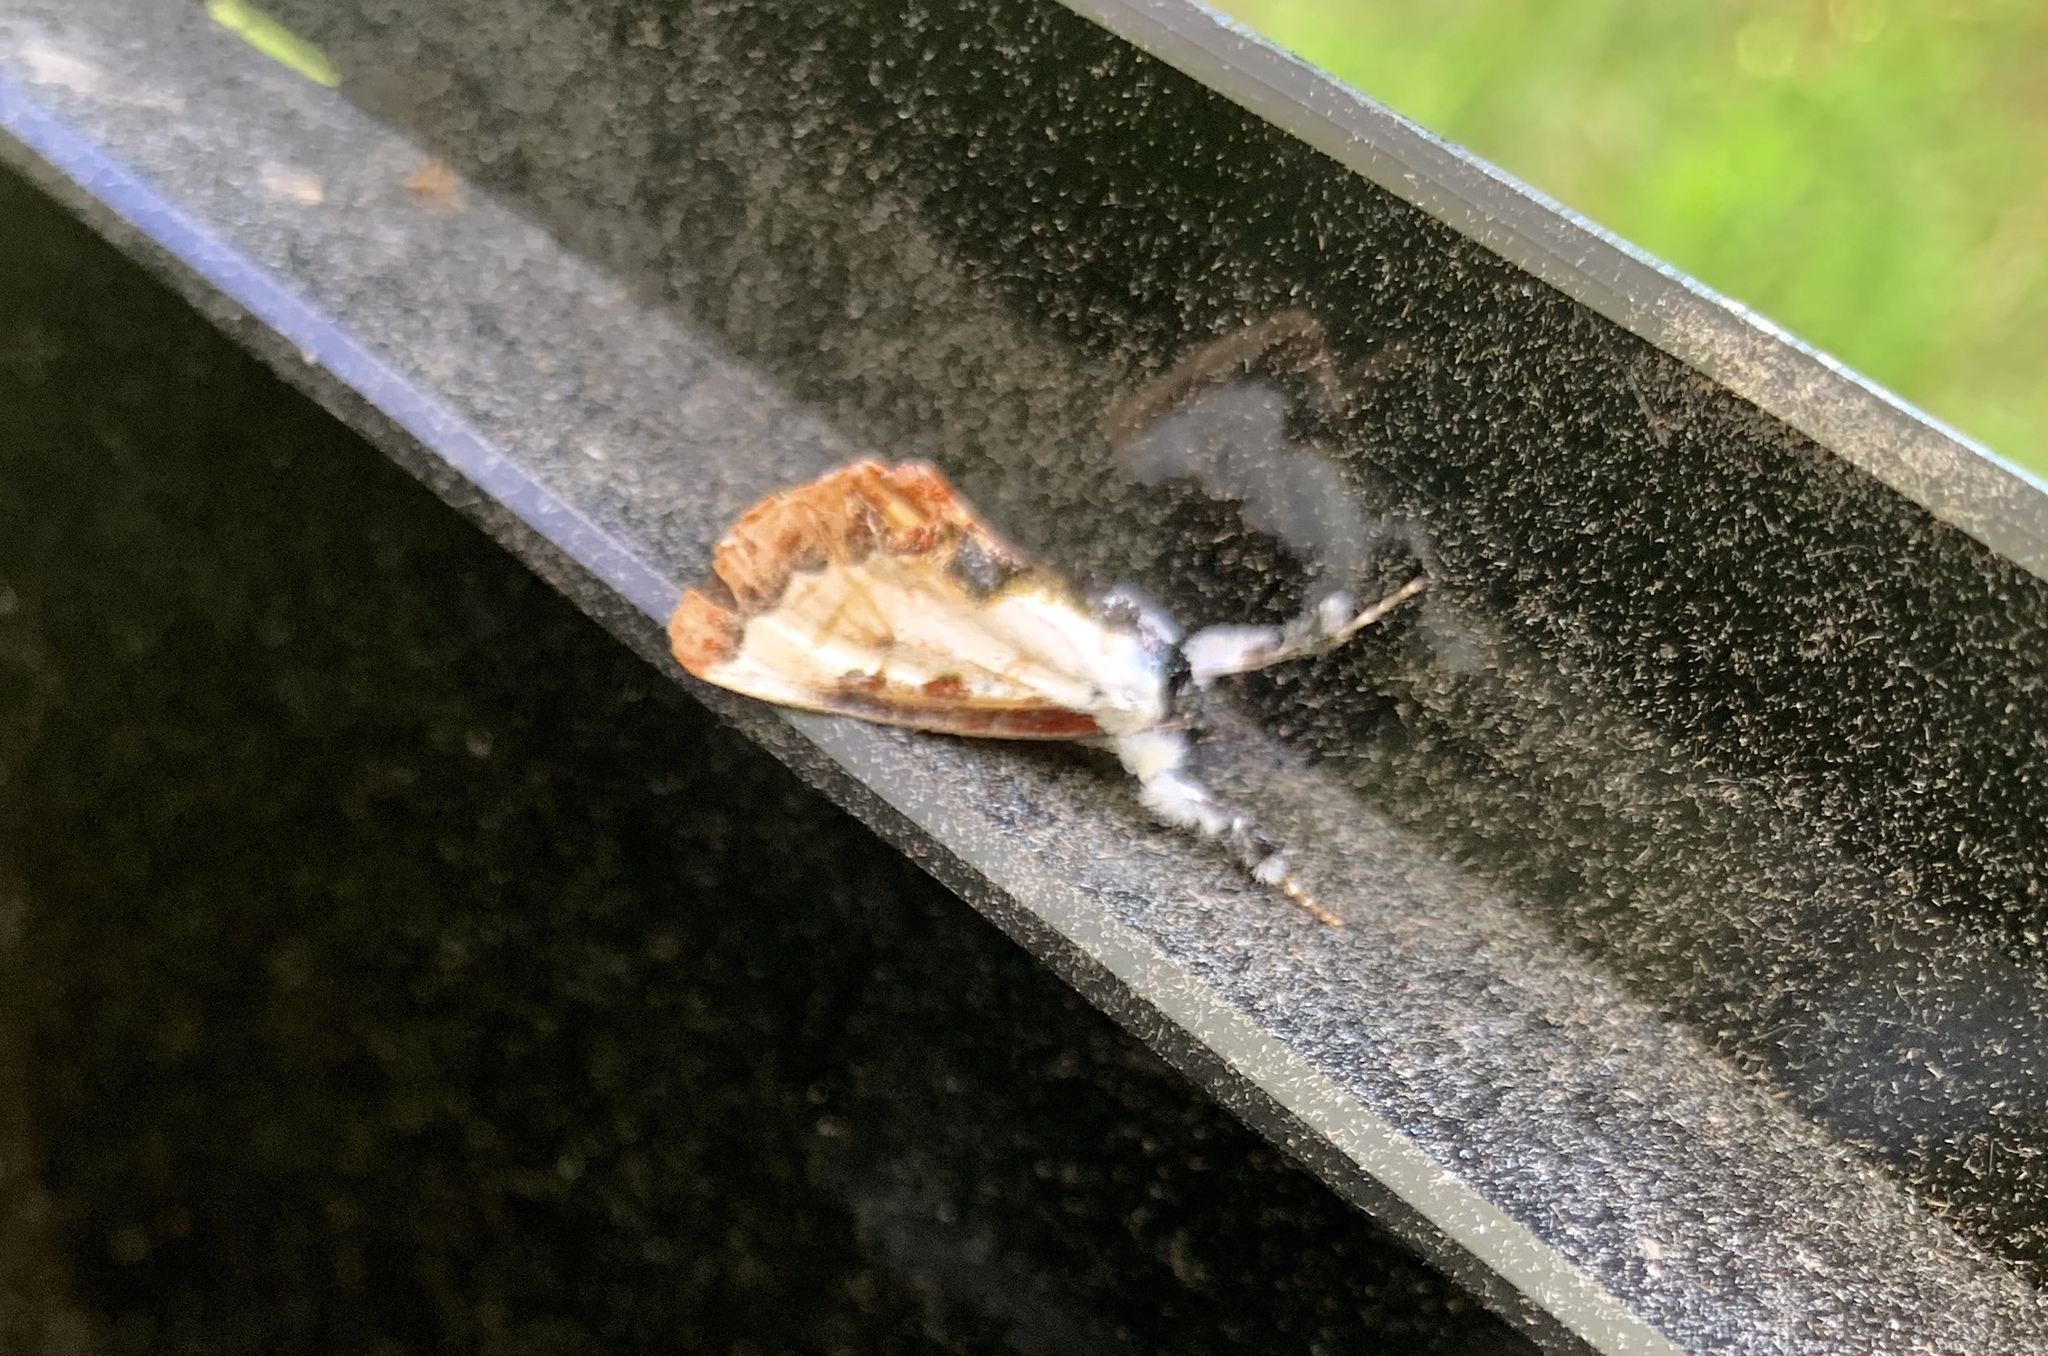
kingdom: Animalia
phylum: Arthropoda
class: Insecta
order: Lepidoptera
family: Noctuidae
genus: Eudryas
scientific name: Eudryas unio
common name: Pearly wood-nymph
